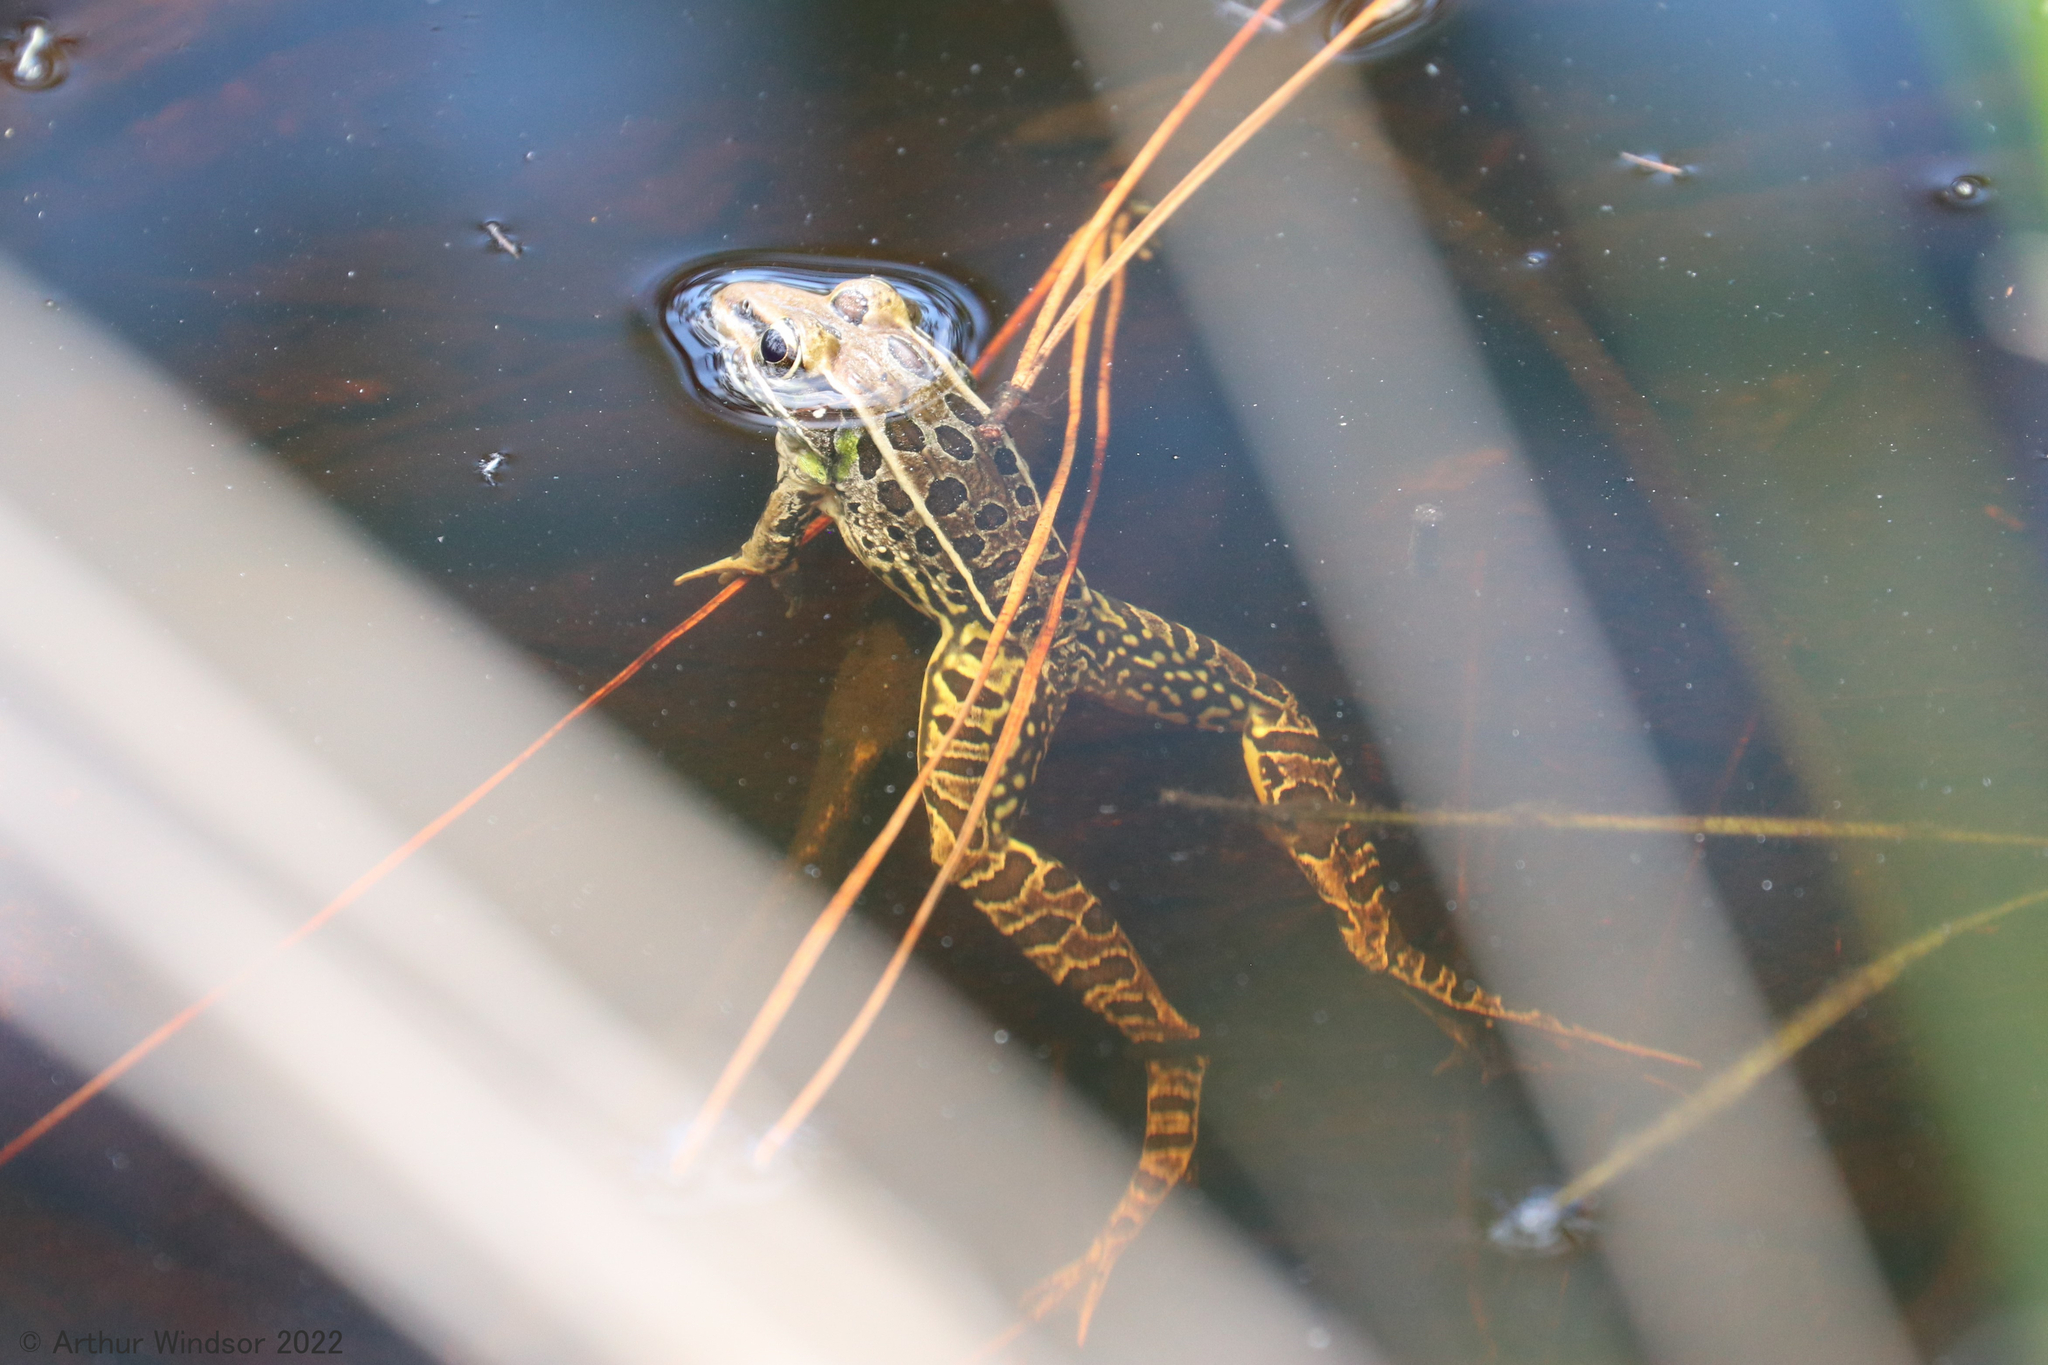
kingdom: Animalia
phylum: Chordata
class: Amphibia
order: Anura
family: Ranidae
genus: Lithobates
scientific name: Lithobates sphenocephalus
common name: Southern leopard frog
